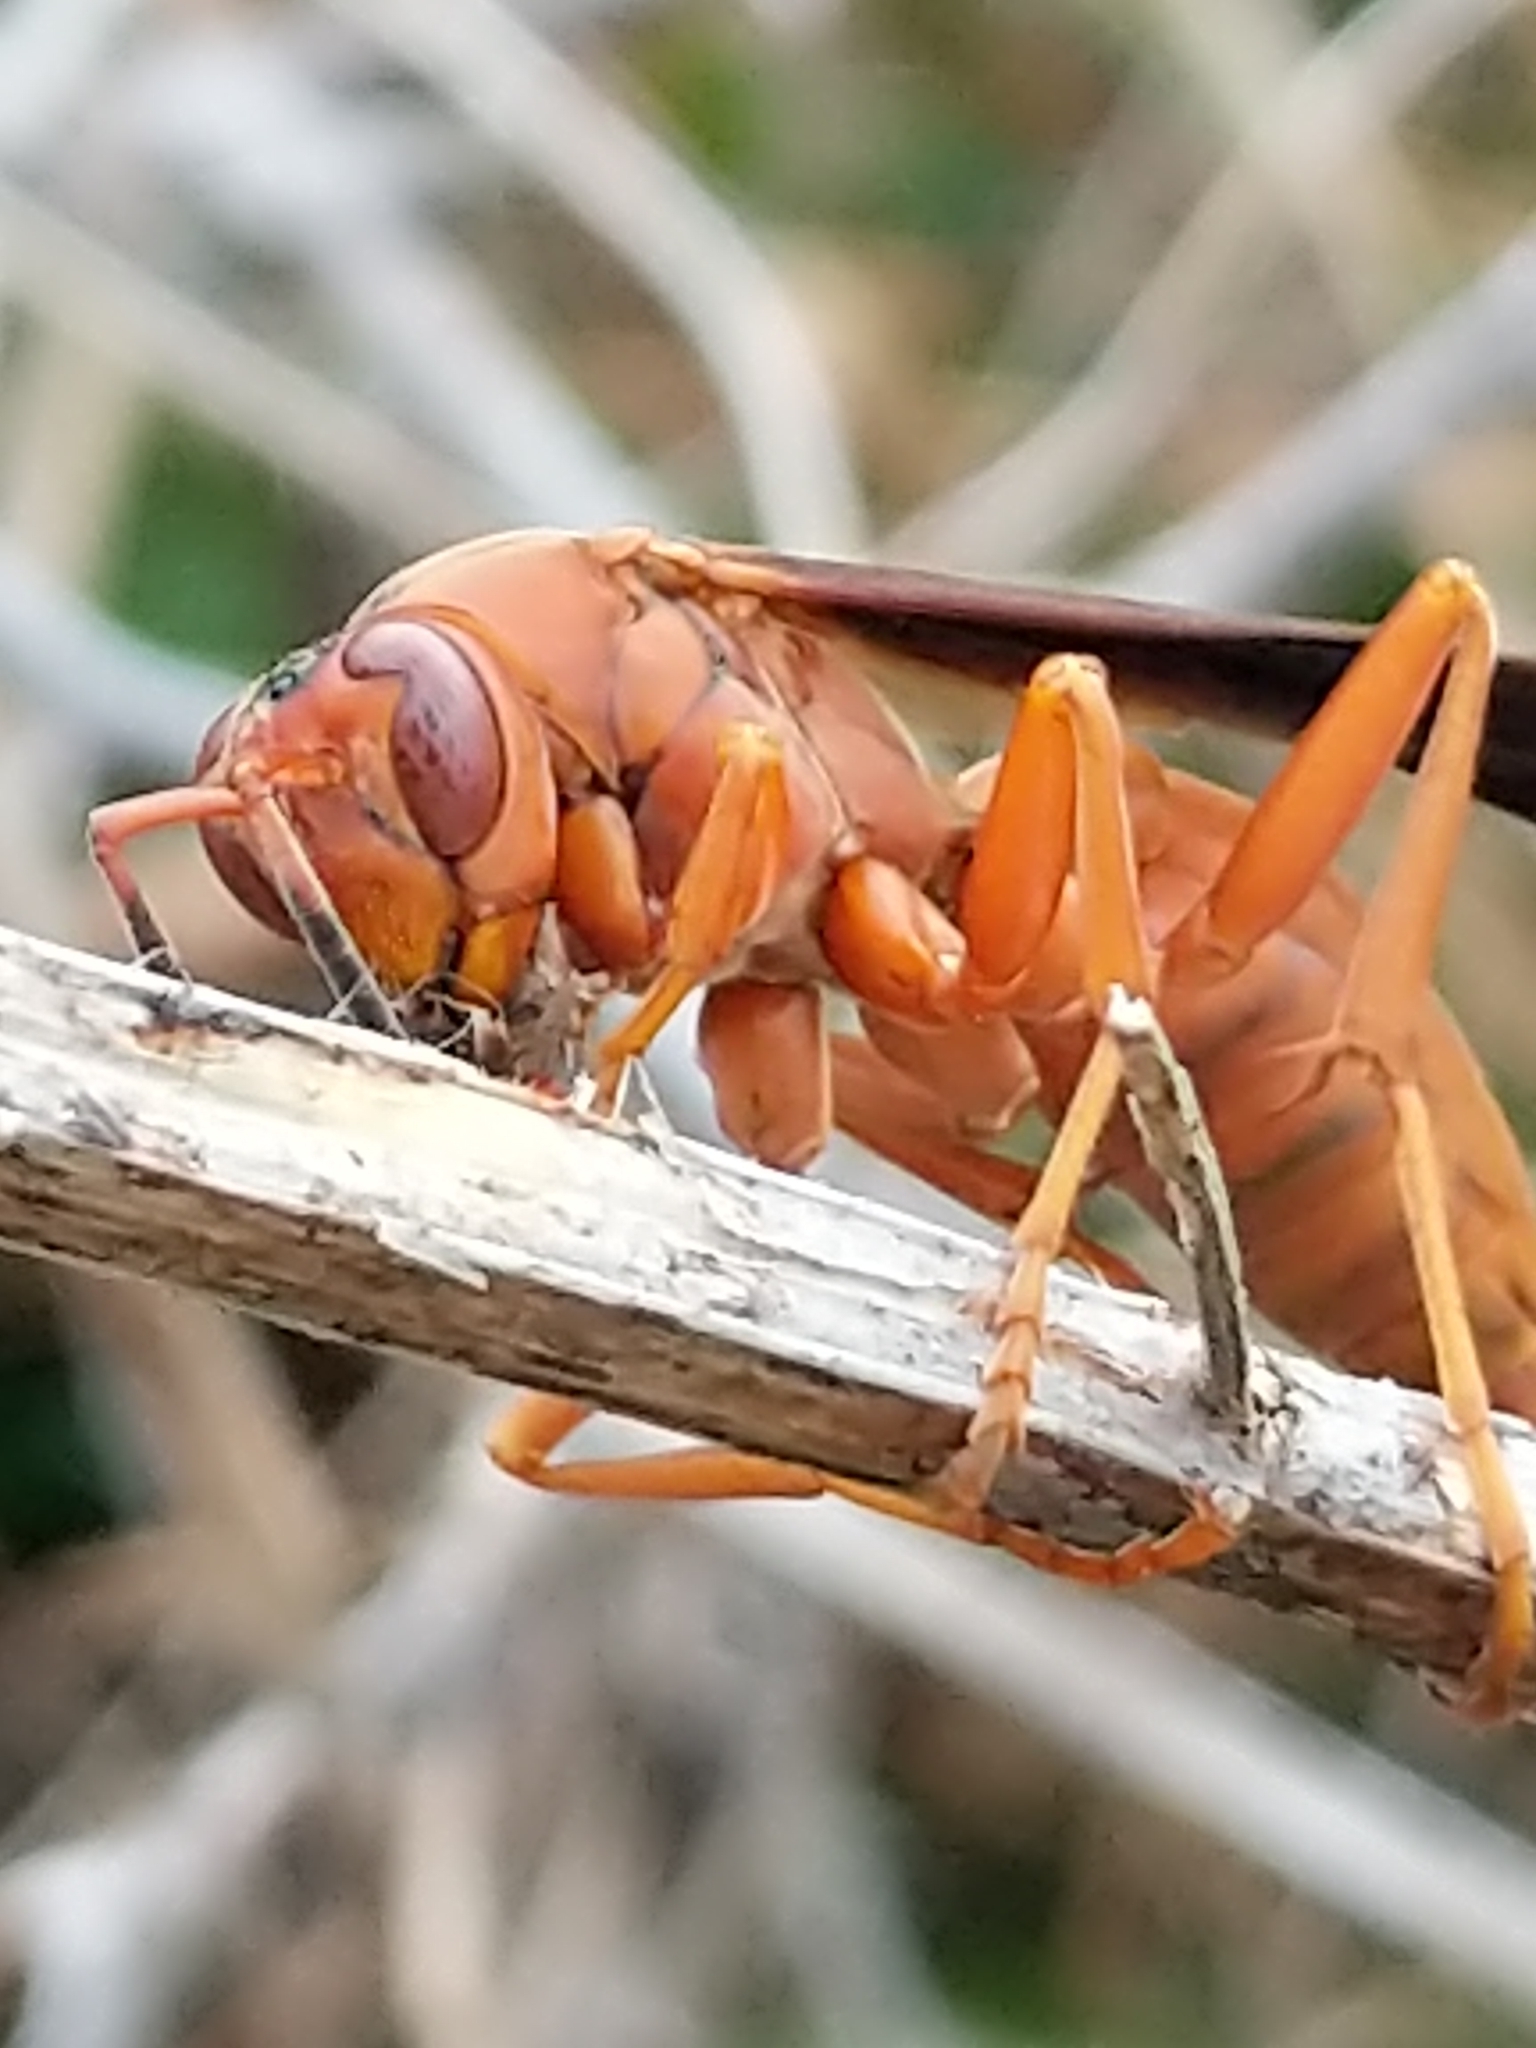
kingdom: Animalia
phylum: Arthropoda
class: Insecta
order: Hymenoptera
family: Vespidae
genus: Fuscopolistes
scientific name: Fuscopolistes
